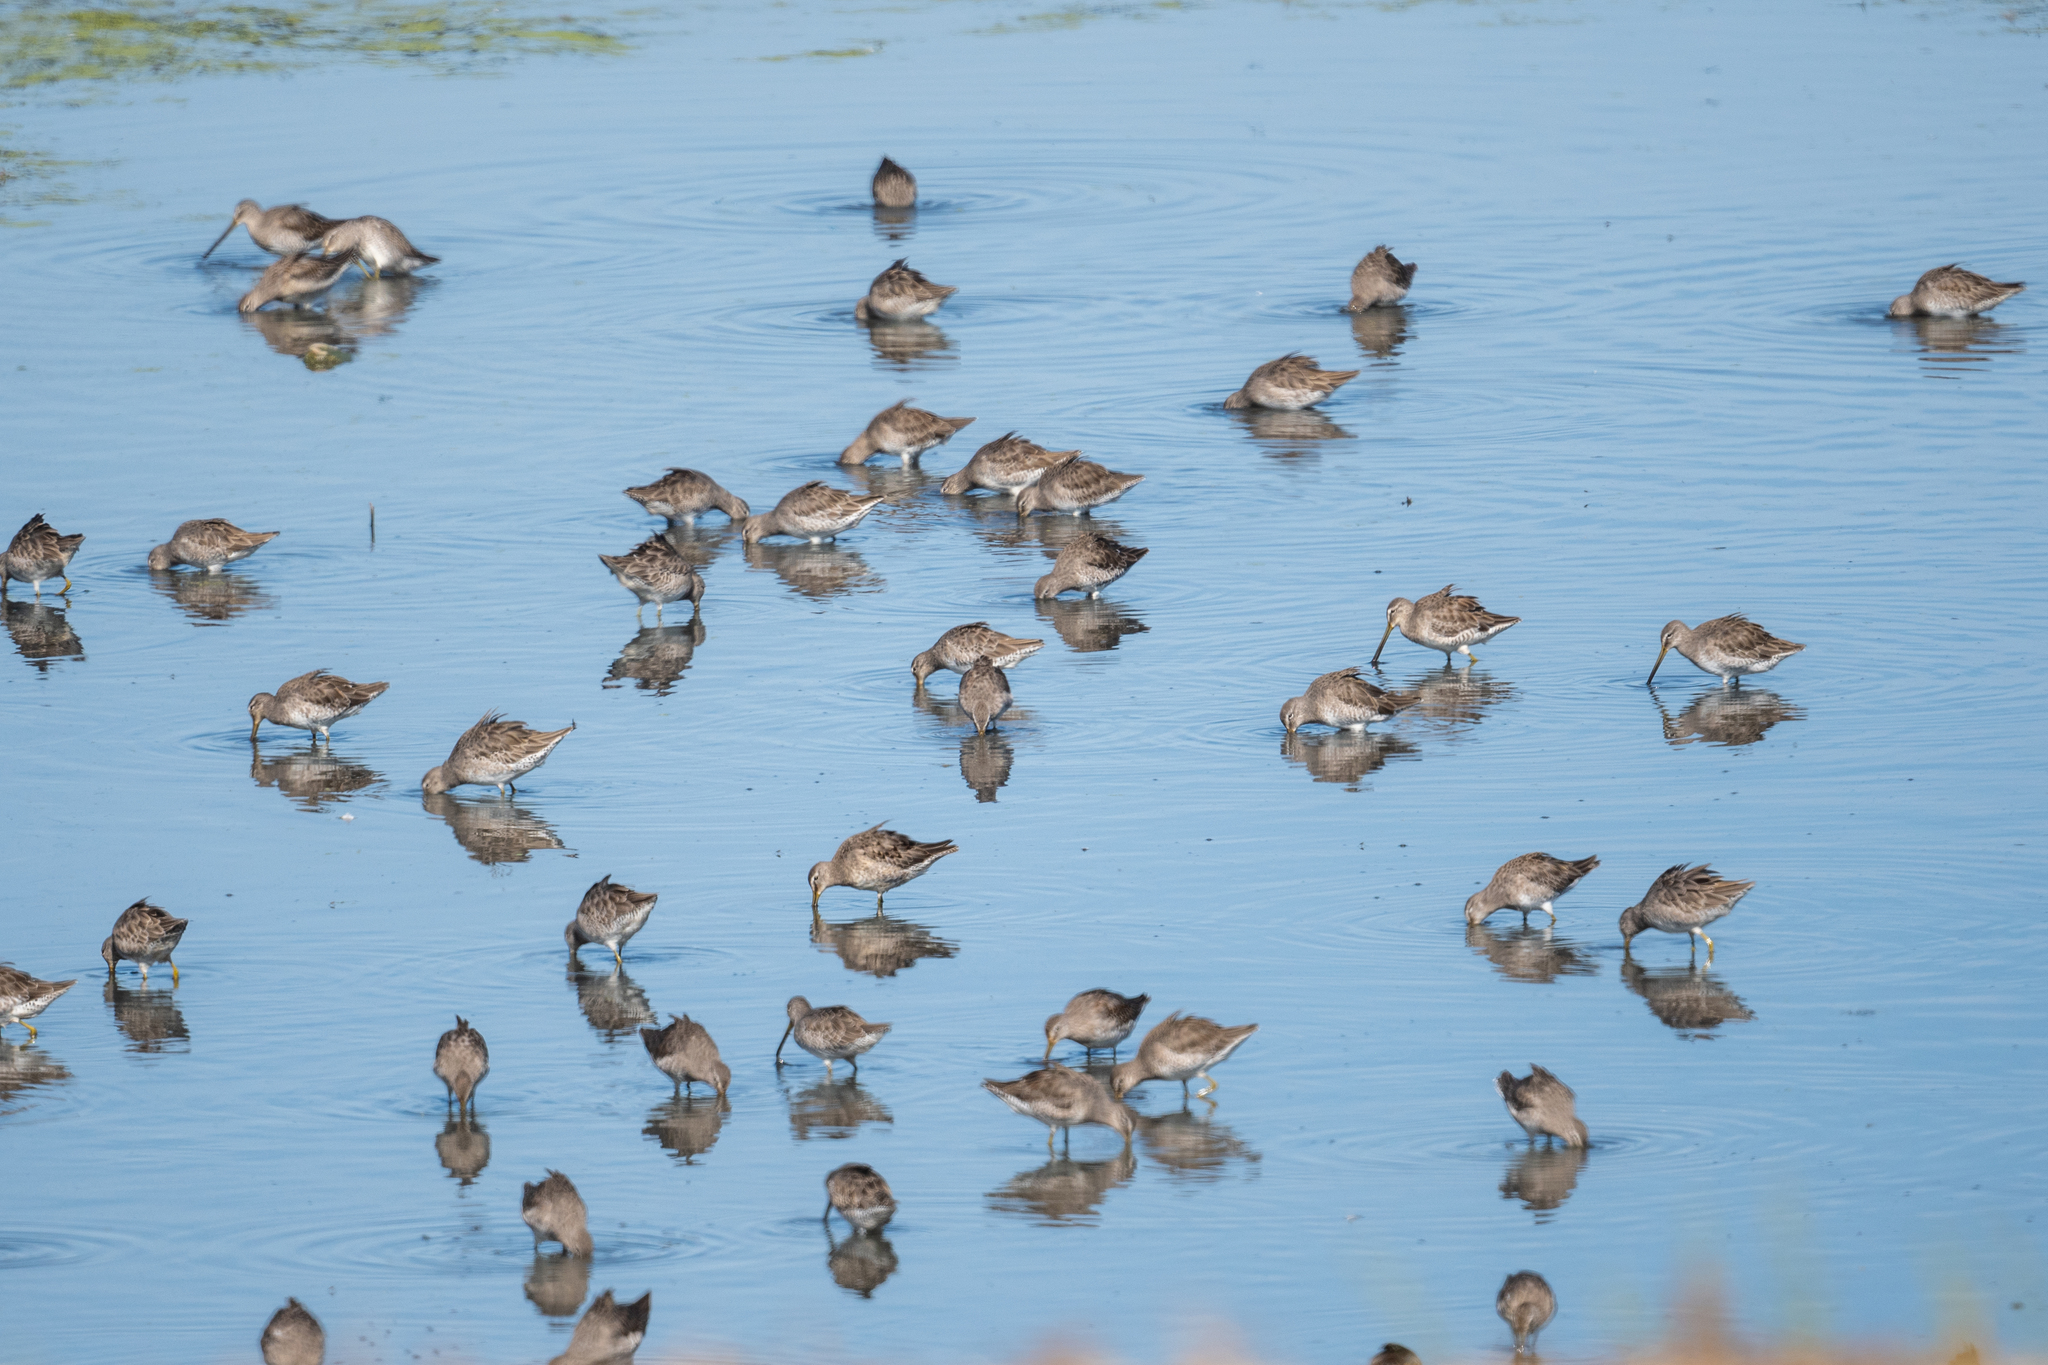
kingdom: Animalia
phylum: Chordata
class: Aves
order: Charadriiformes
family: Scolopacidae
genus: Limnodromus
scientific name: Limnodromus scolopaceus
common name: Long-billed dowitcher
